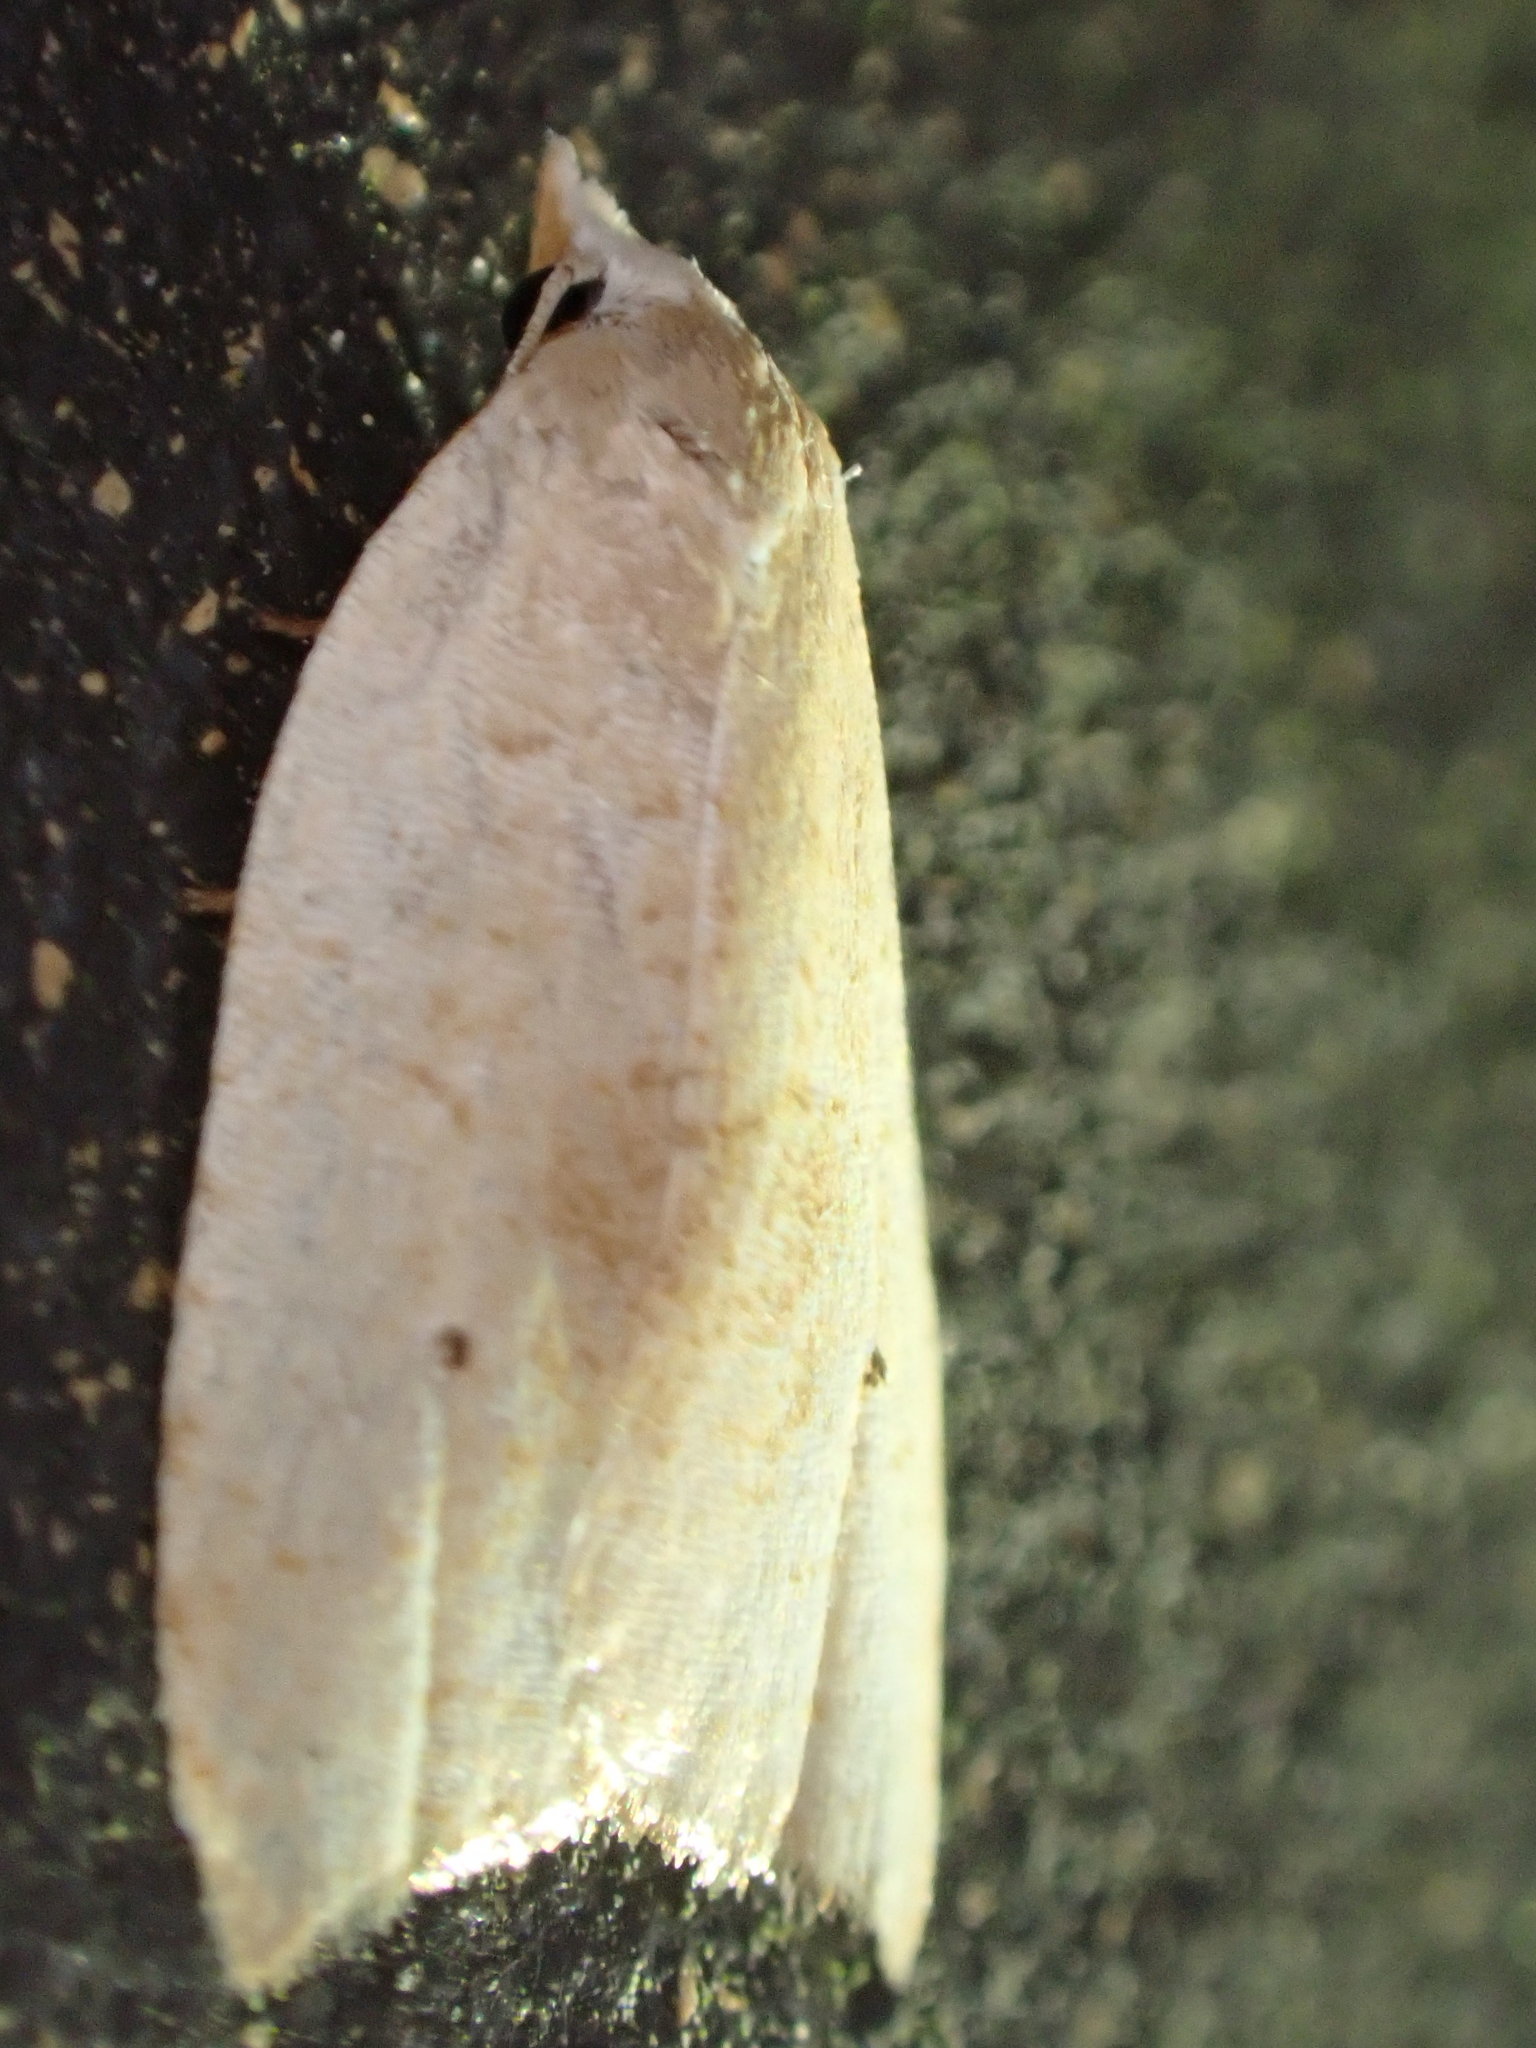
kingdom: Animalia
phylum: Arthropoda
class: Insecta
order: Lepidoptera
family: Tortricidae
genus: Coelostathma
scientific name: Coelostathma discopunctana
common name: Batman moth
